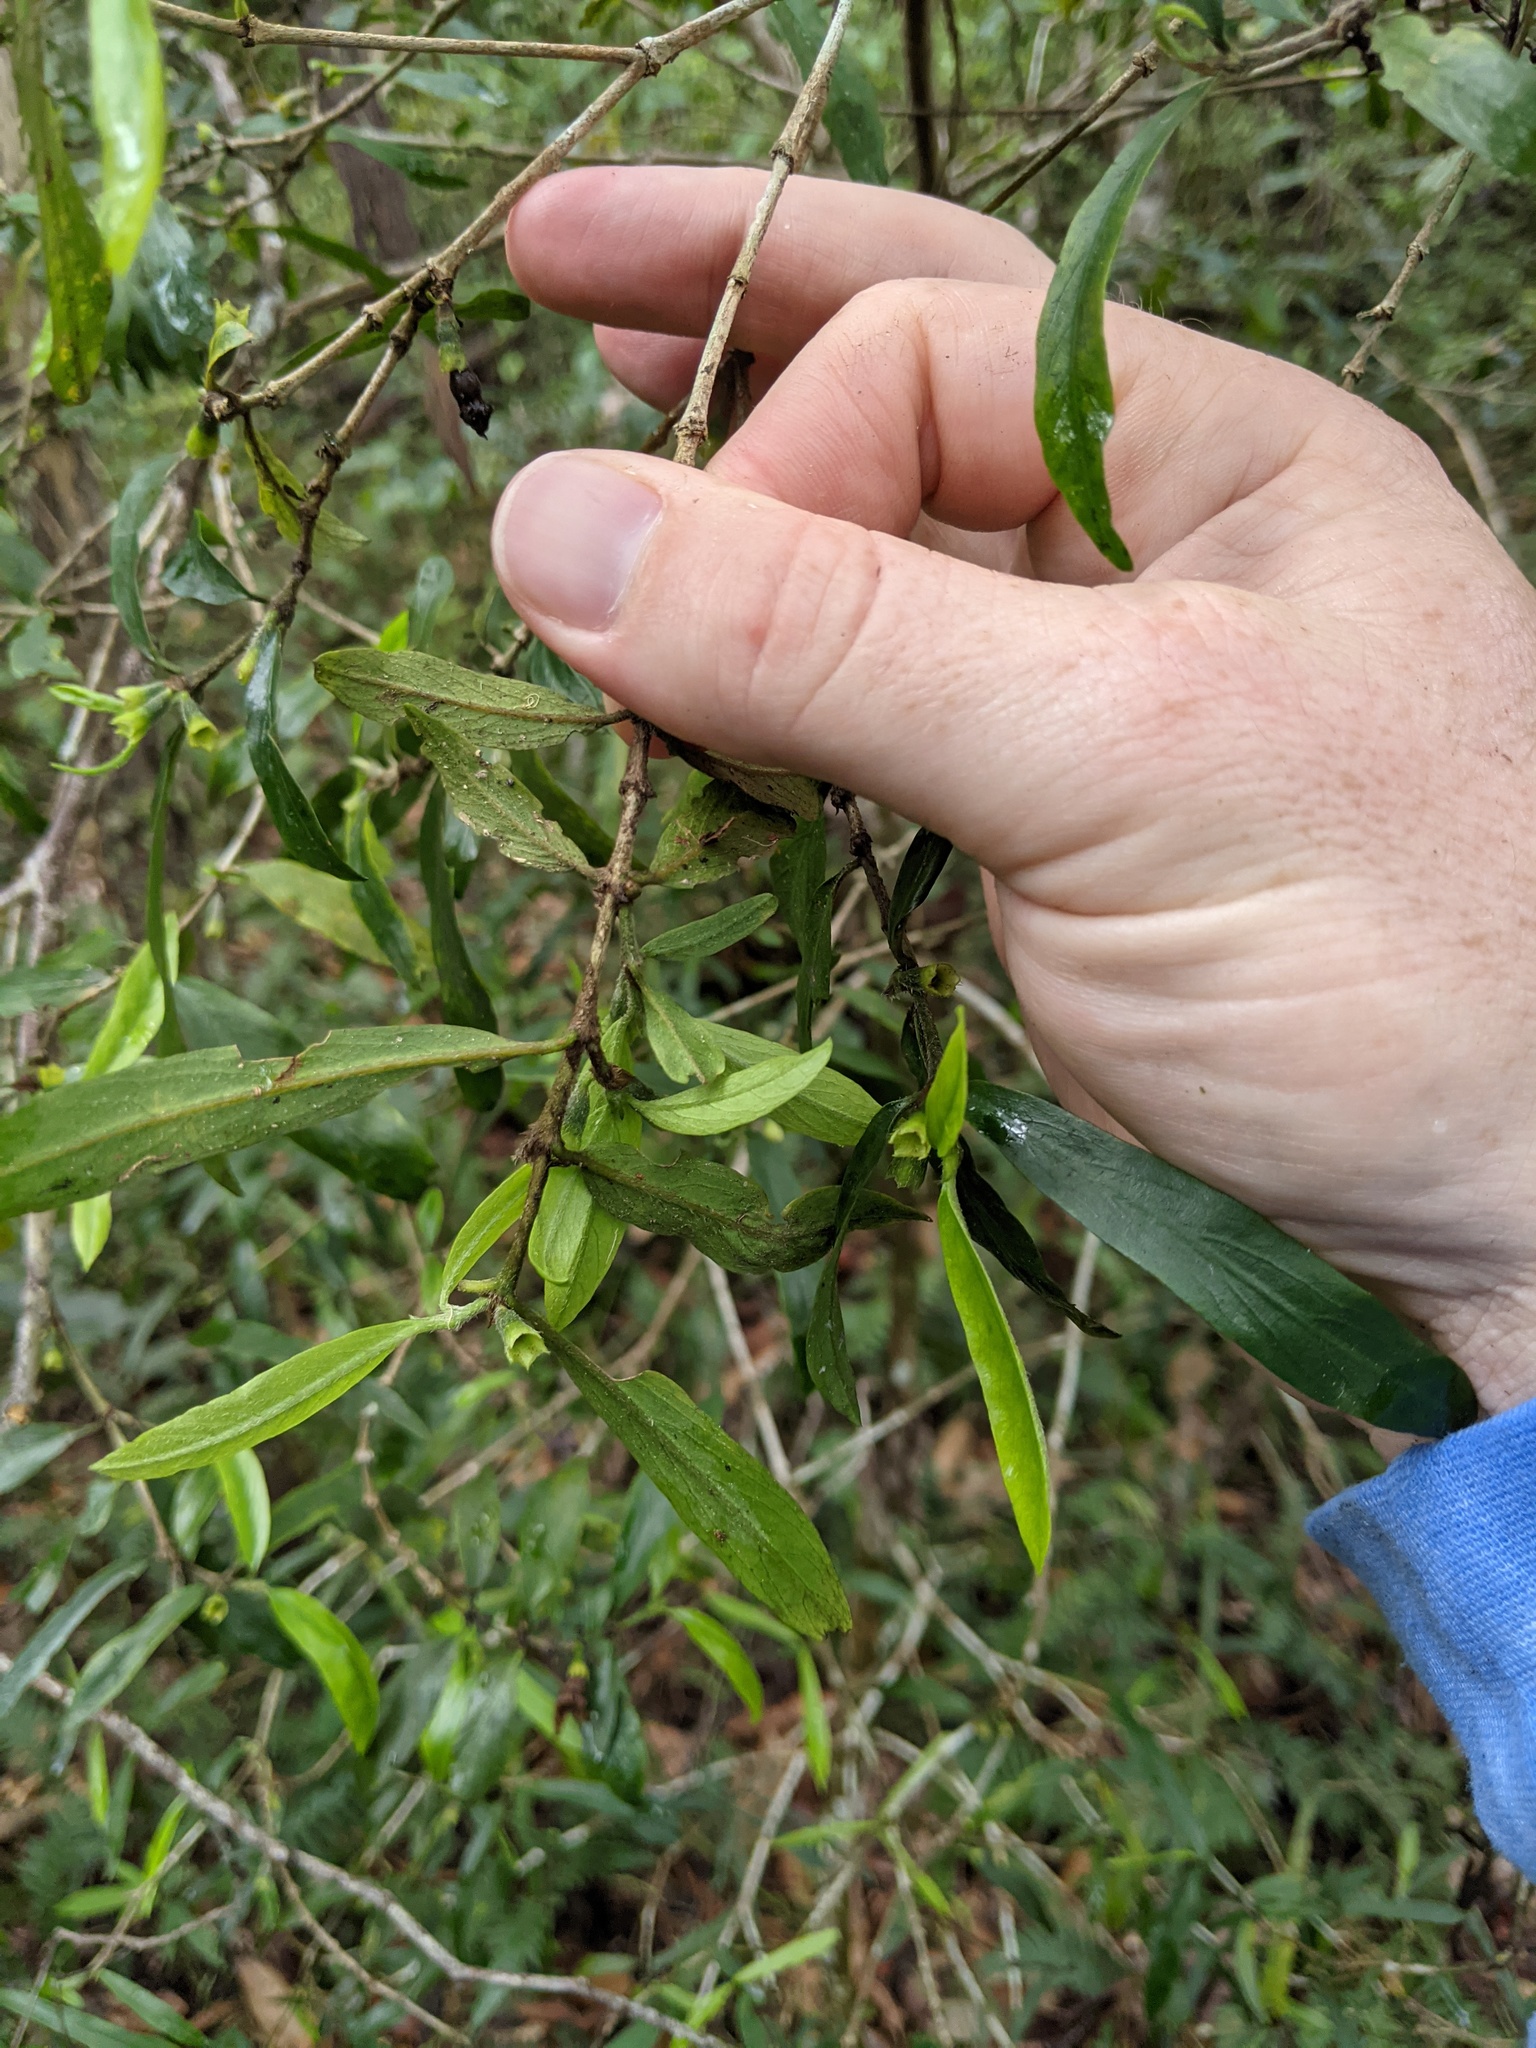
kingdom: Plantae
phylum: Tracheophyta
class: Magnoliopsida
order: Gentianales
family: Rubiaceae
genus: Atractocarpus
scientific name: Atractocarpus chartaceus
